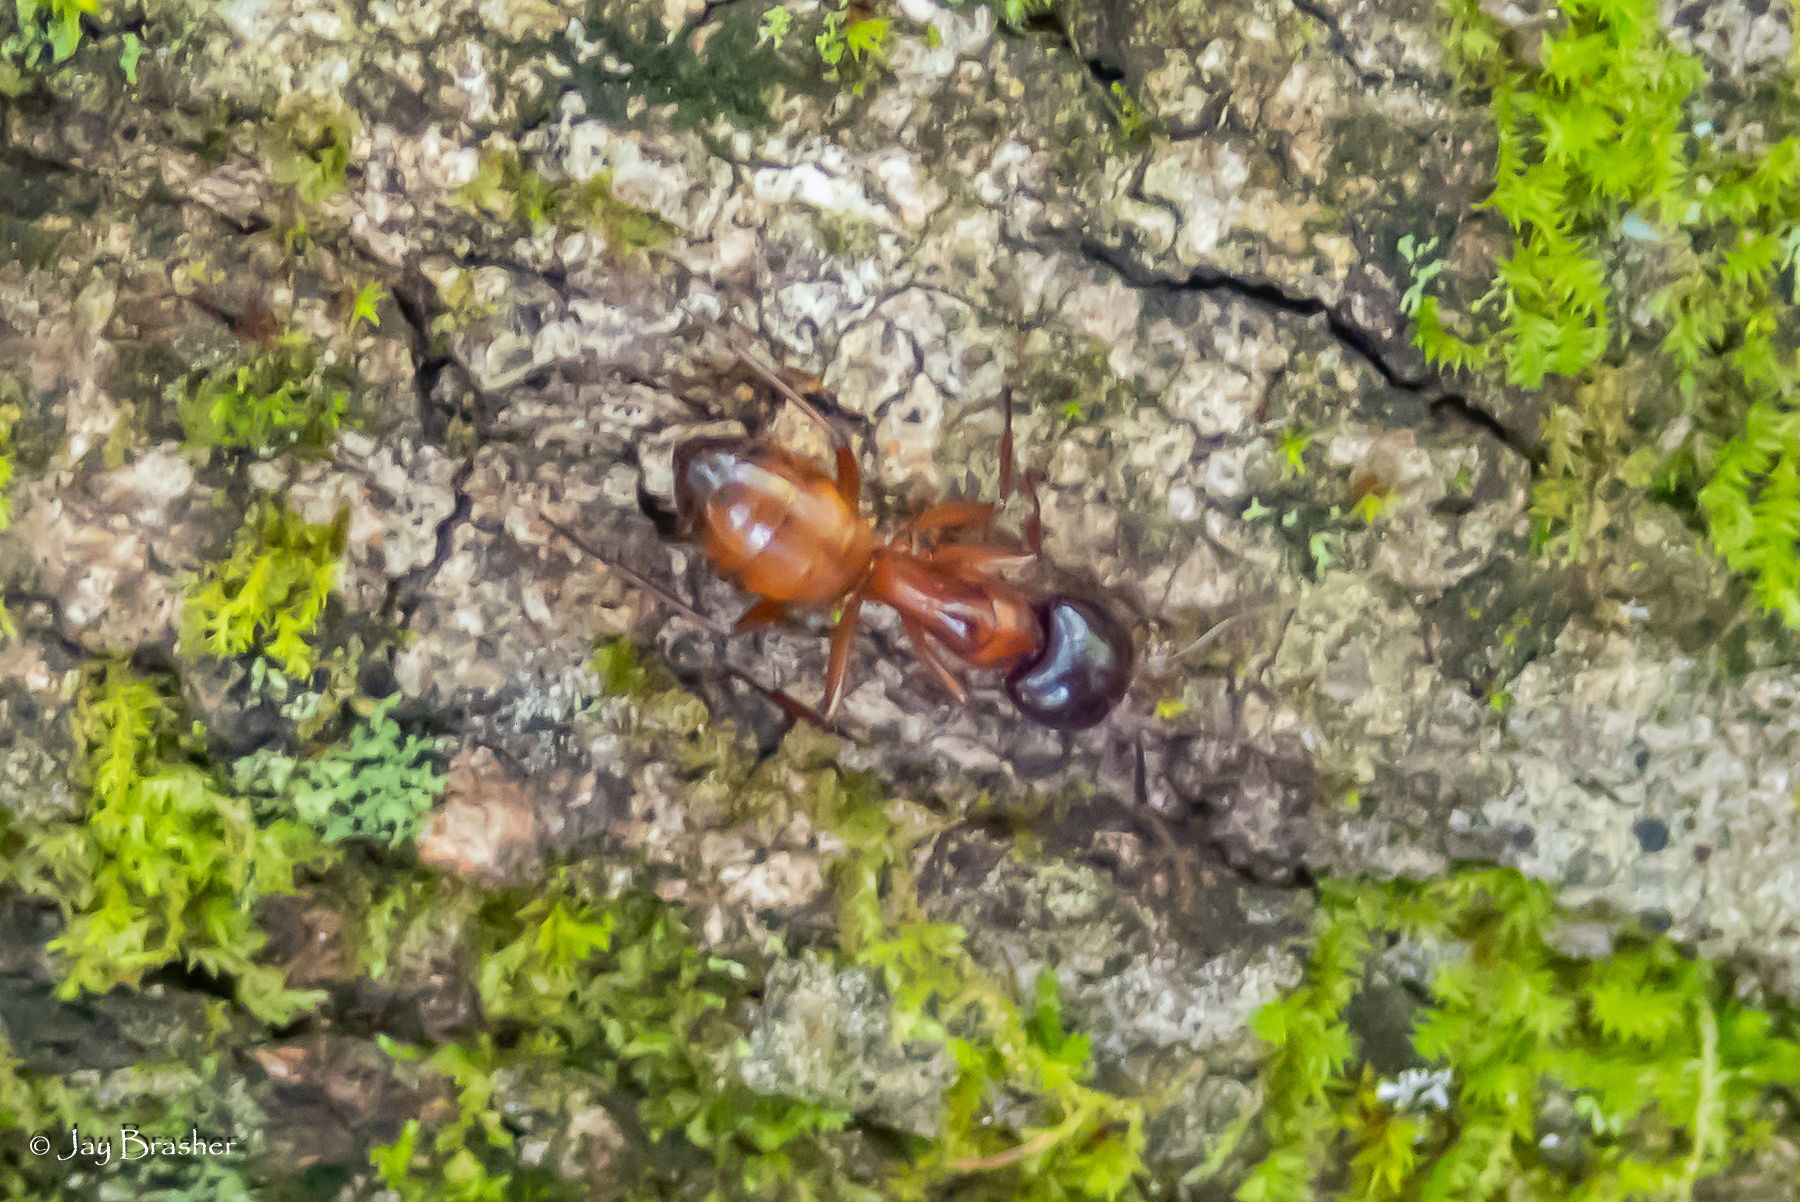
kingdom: Animalia
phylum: Arthropoda
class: Insecta
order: Hymenoptera
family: Formicidae
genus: Camponotus
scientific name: Camponotus americanus
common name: American carpenter ant
